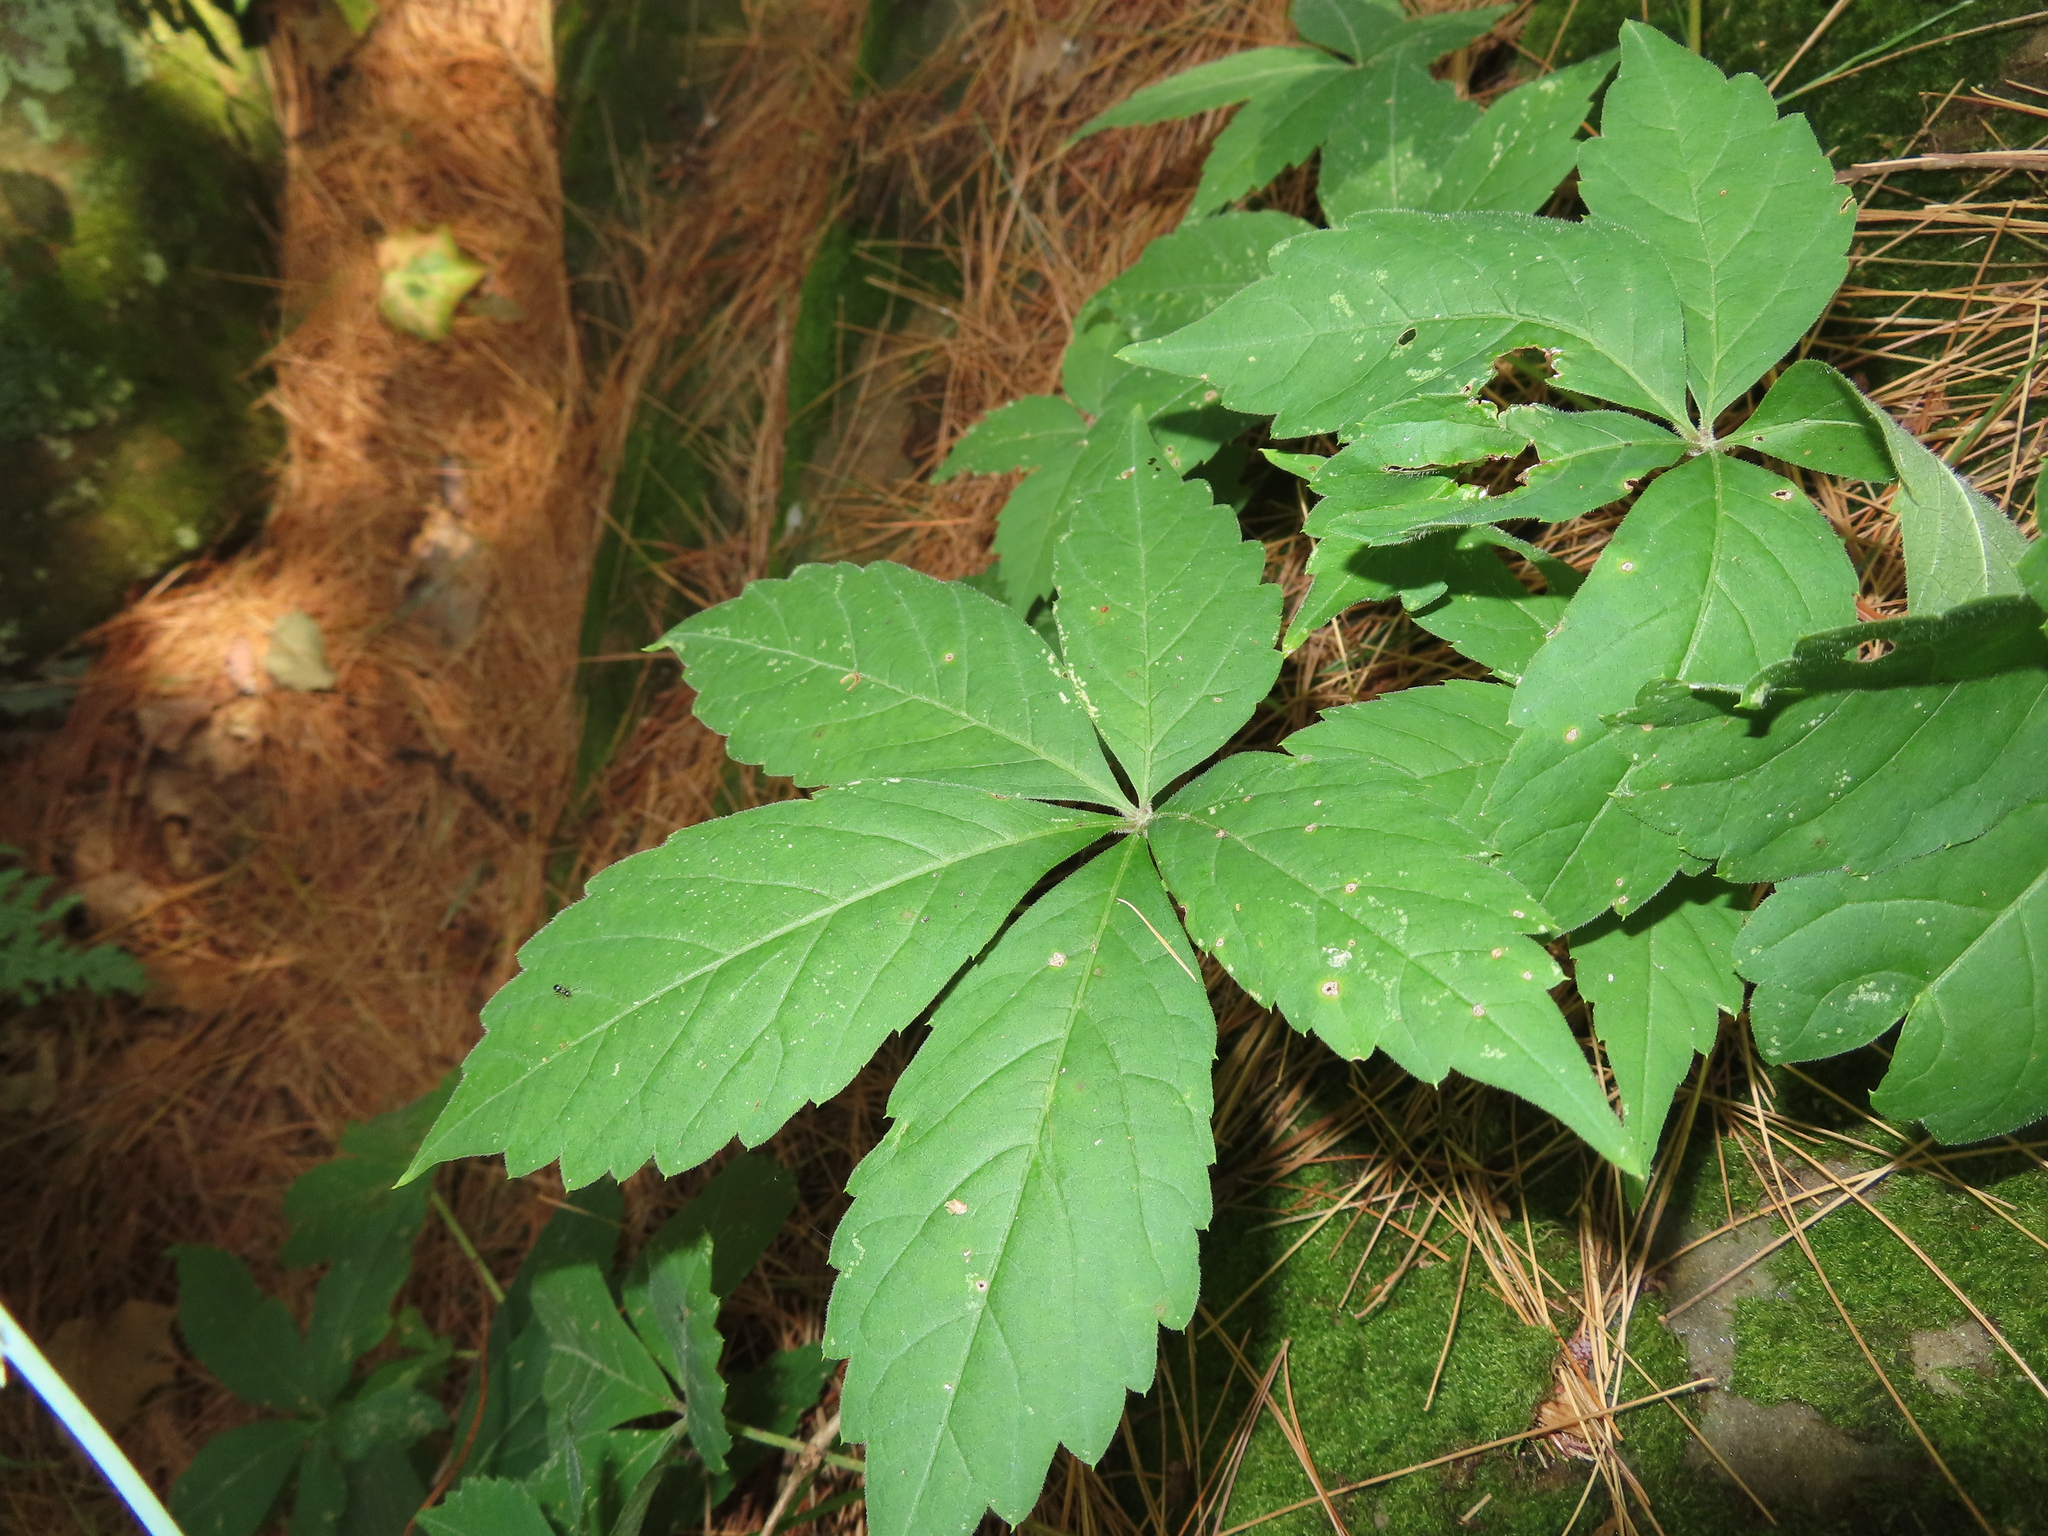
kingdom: Plantae
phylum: Tracheophyta
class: Magnoliopsida
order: Vitales
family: Vitaceae
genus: Parthenocissus
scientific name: Parthenocissus quinquefolia
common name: Virginia-creeper
